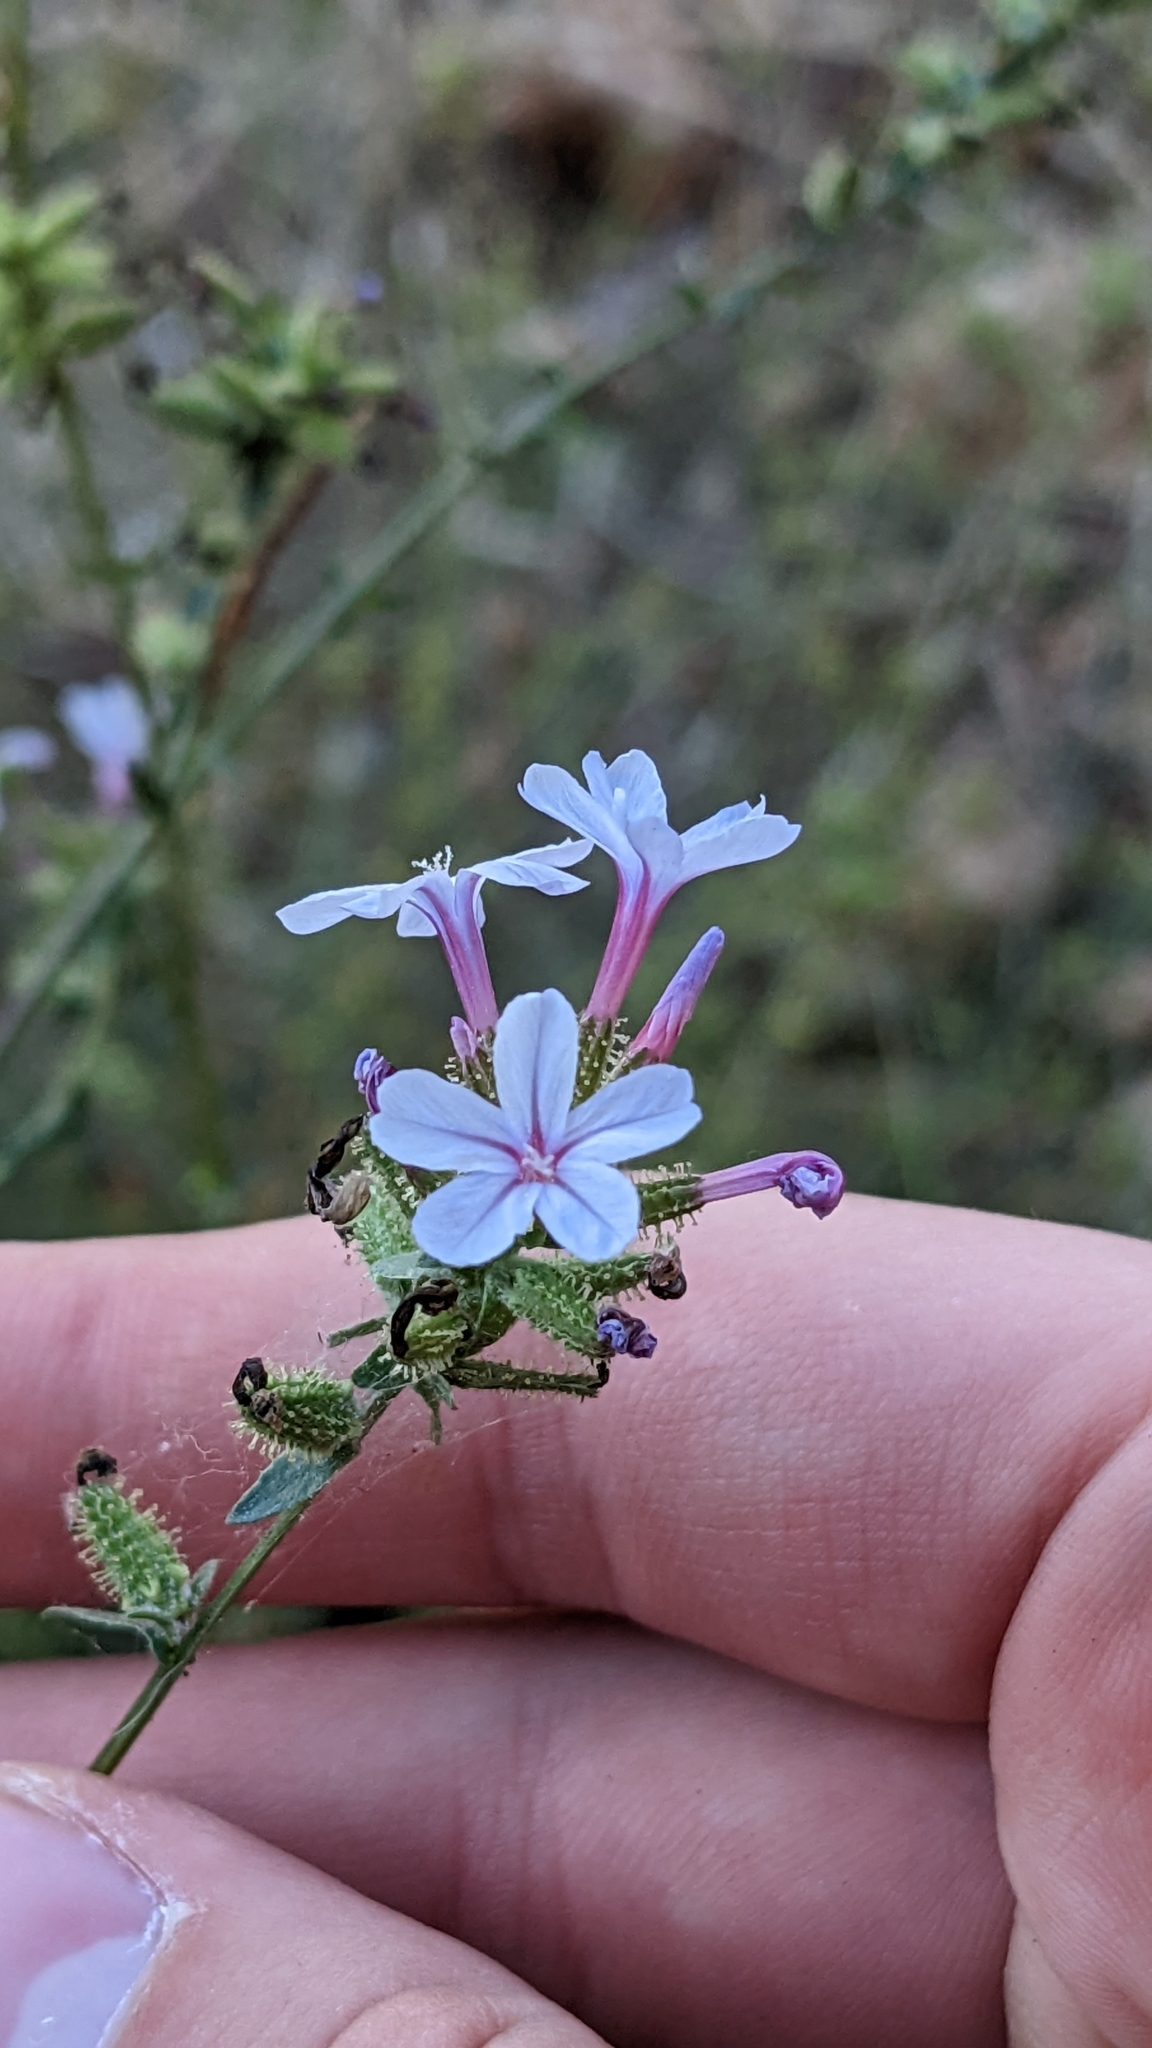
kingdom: Plantae
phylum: Tracheophyta
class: Magnoliopsida
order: Caryophyllales
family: Plumbaginaceae
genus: Plumbago
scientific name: Plumbago europaea
